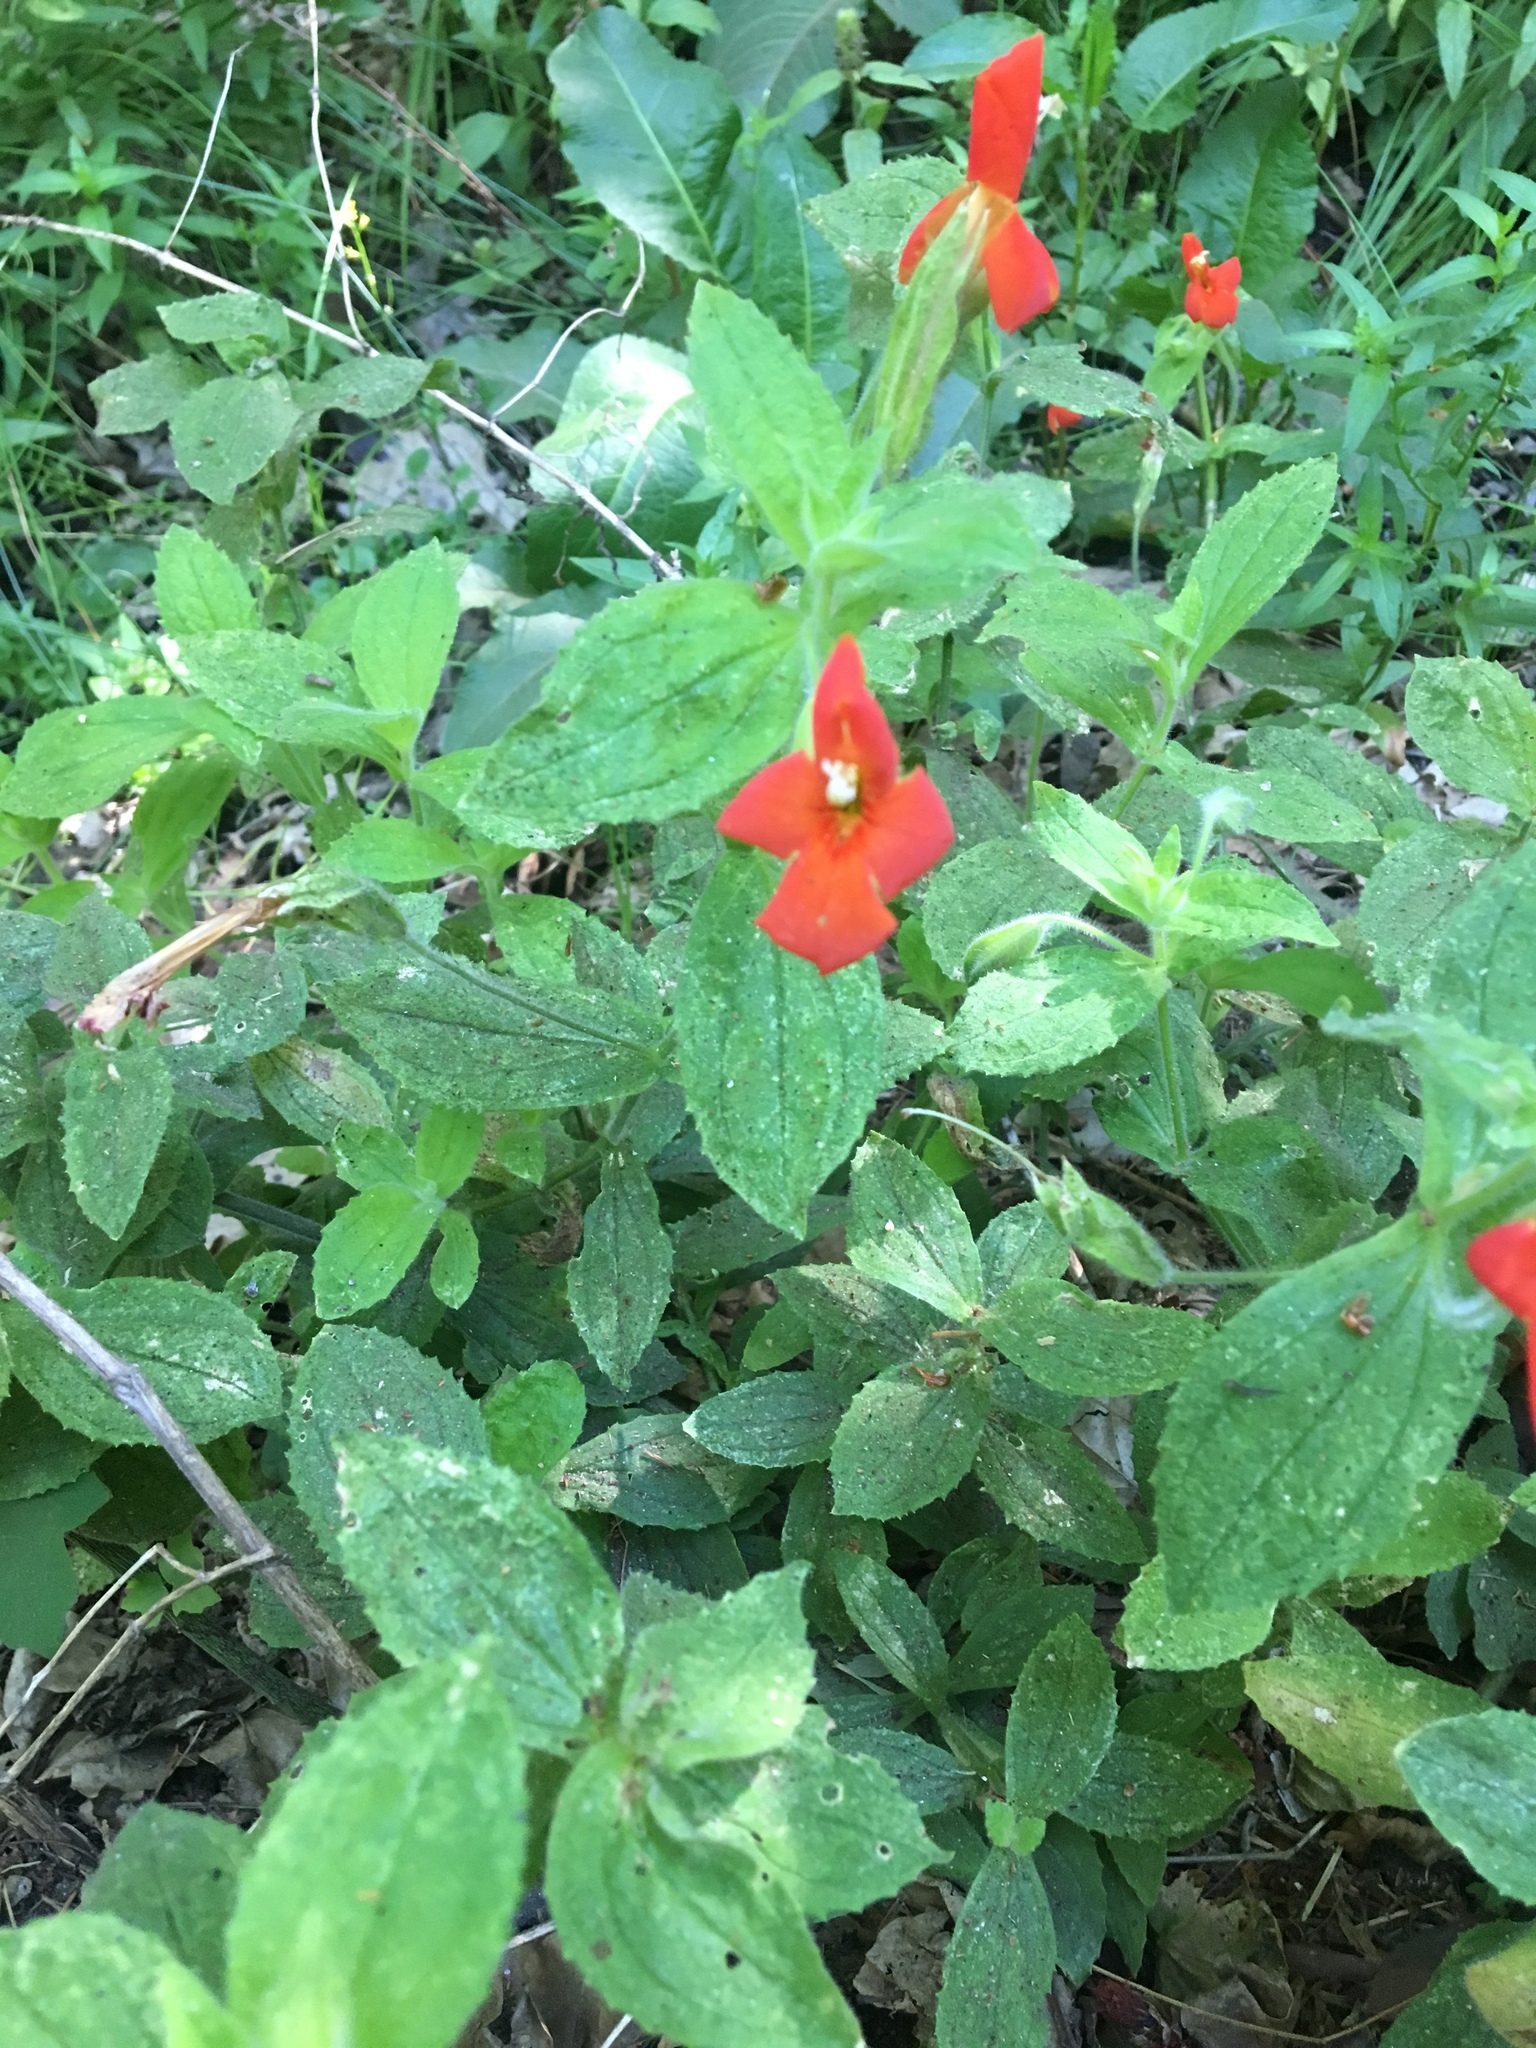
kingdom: Plantae
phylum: Tracheophyta
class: Magnoliopsida
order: Lamiales
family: Phrymaceae
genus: Erythranthe
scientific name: Erythranthe cardinalis
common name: Scarlet monkey-flower
